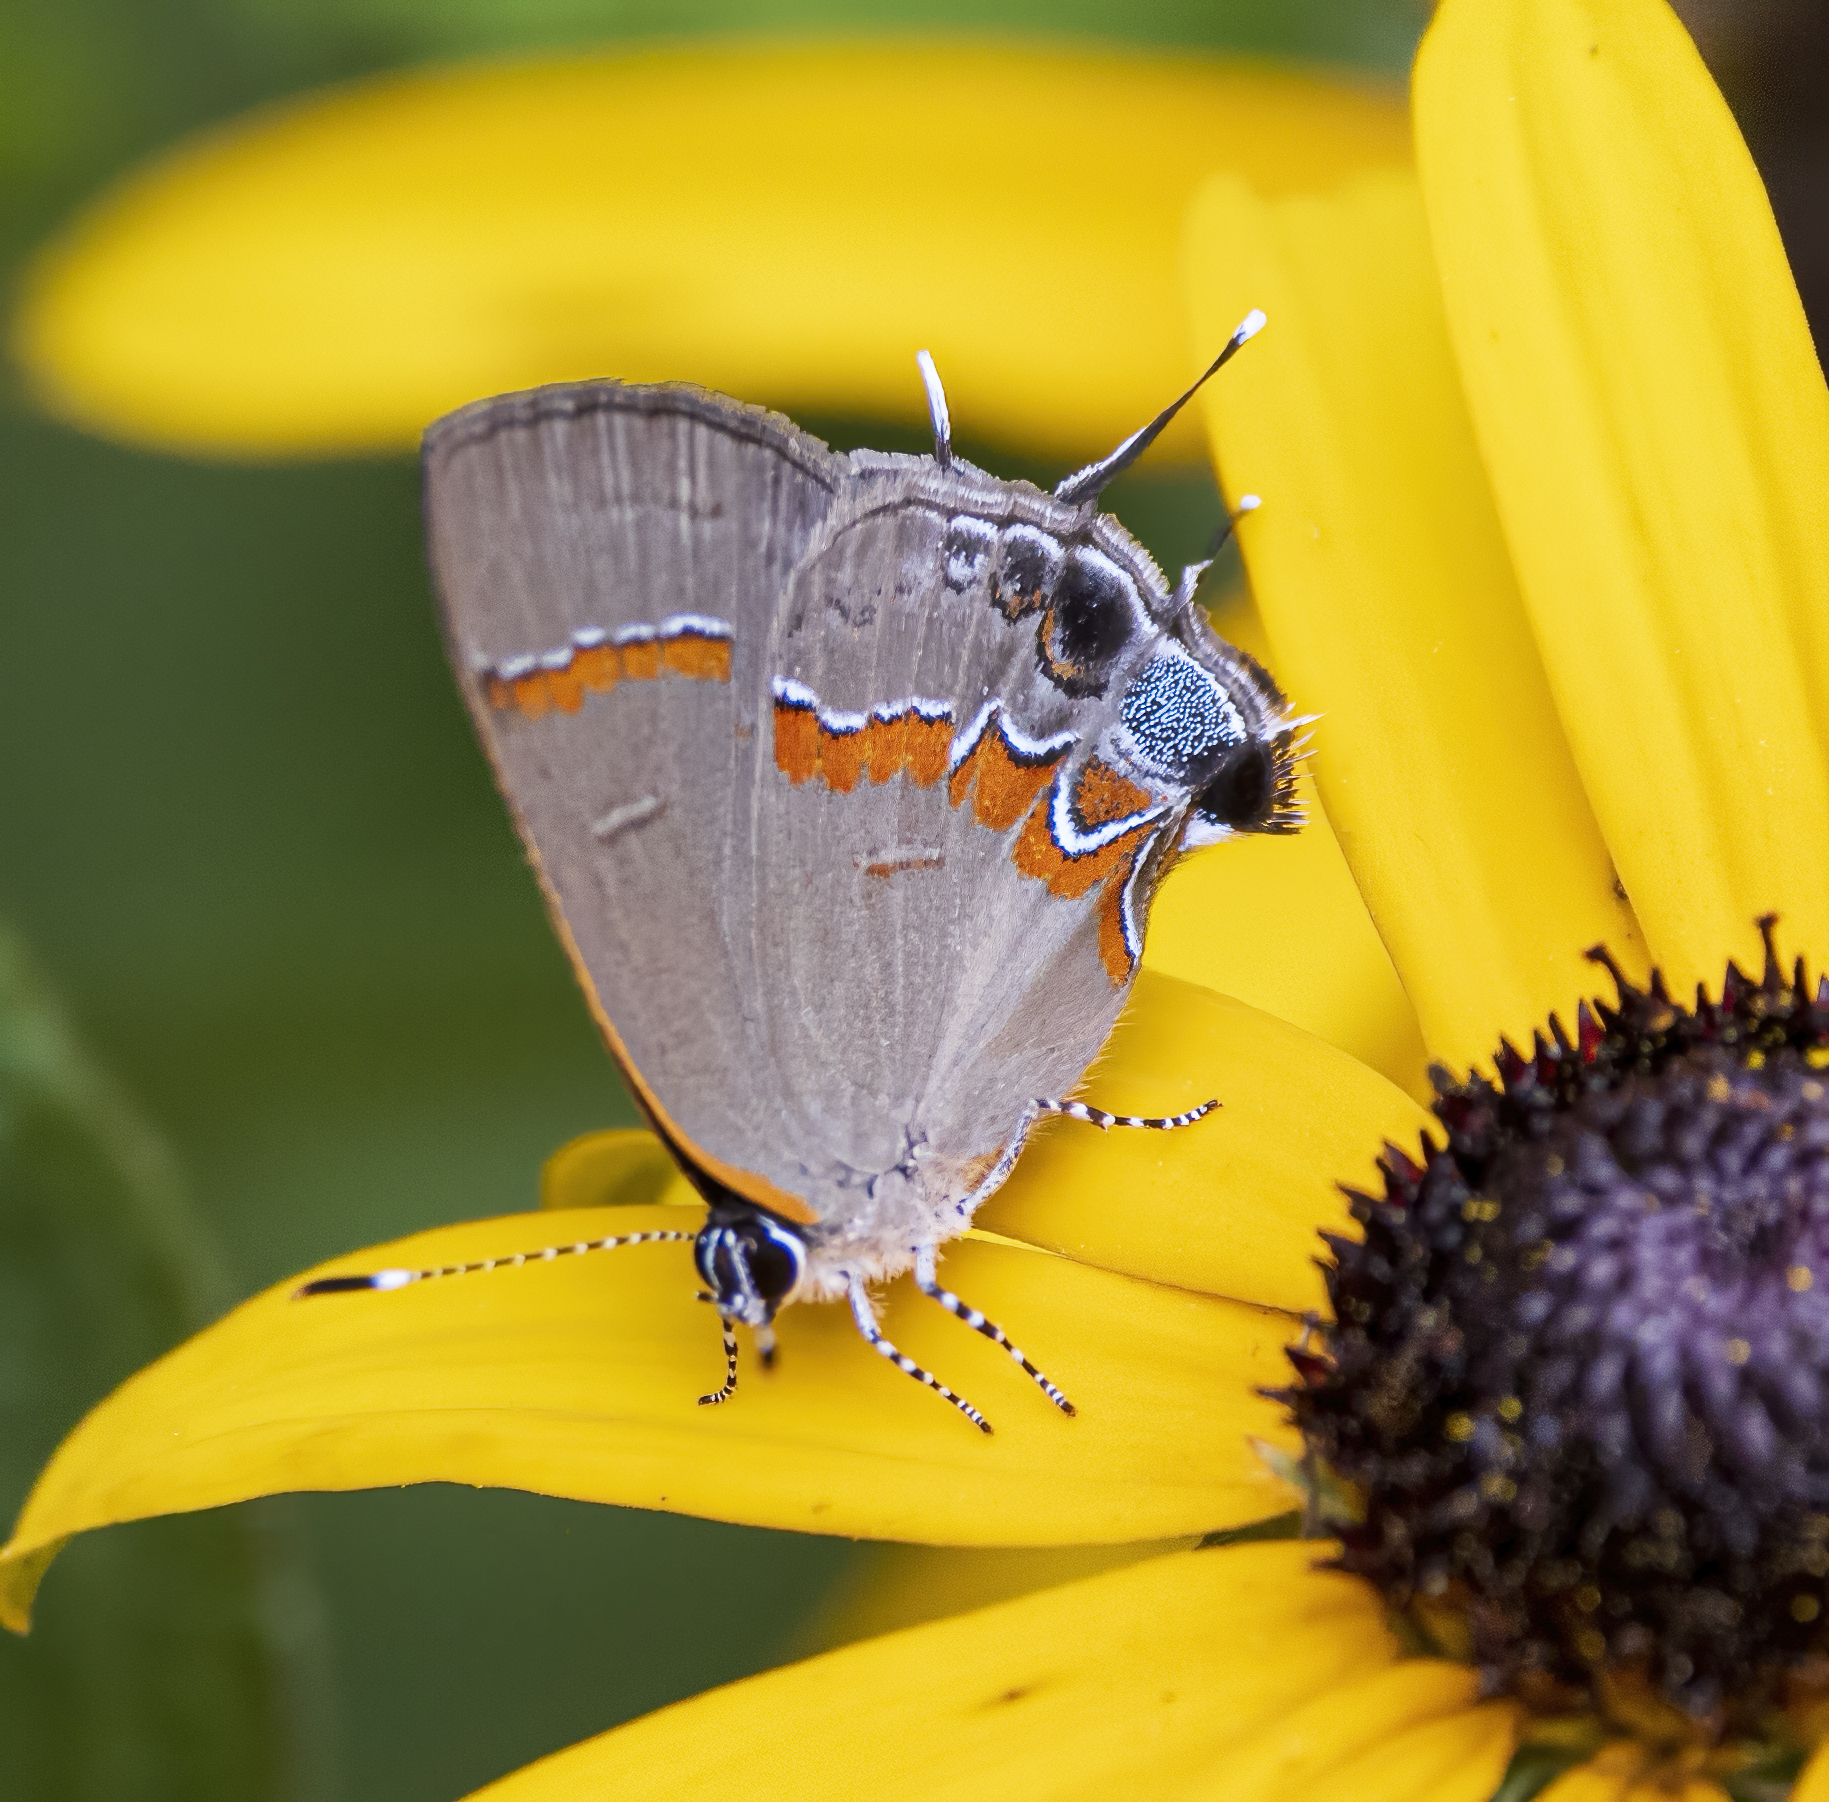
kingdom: Animalia
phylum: Arthropoda
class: Insecta
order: Lepidoptera
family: Lycaenidae
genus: Calycopis
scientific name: Calycopis cecrops
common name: Red-banded hairstreak
